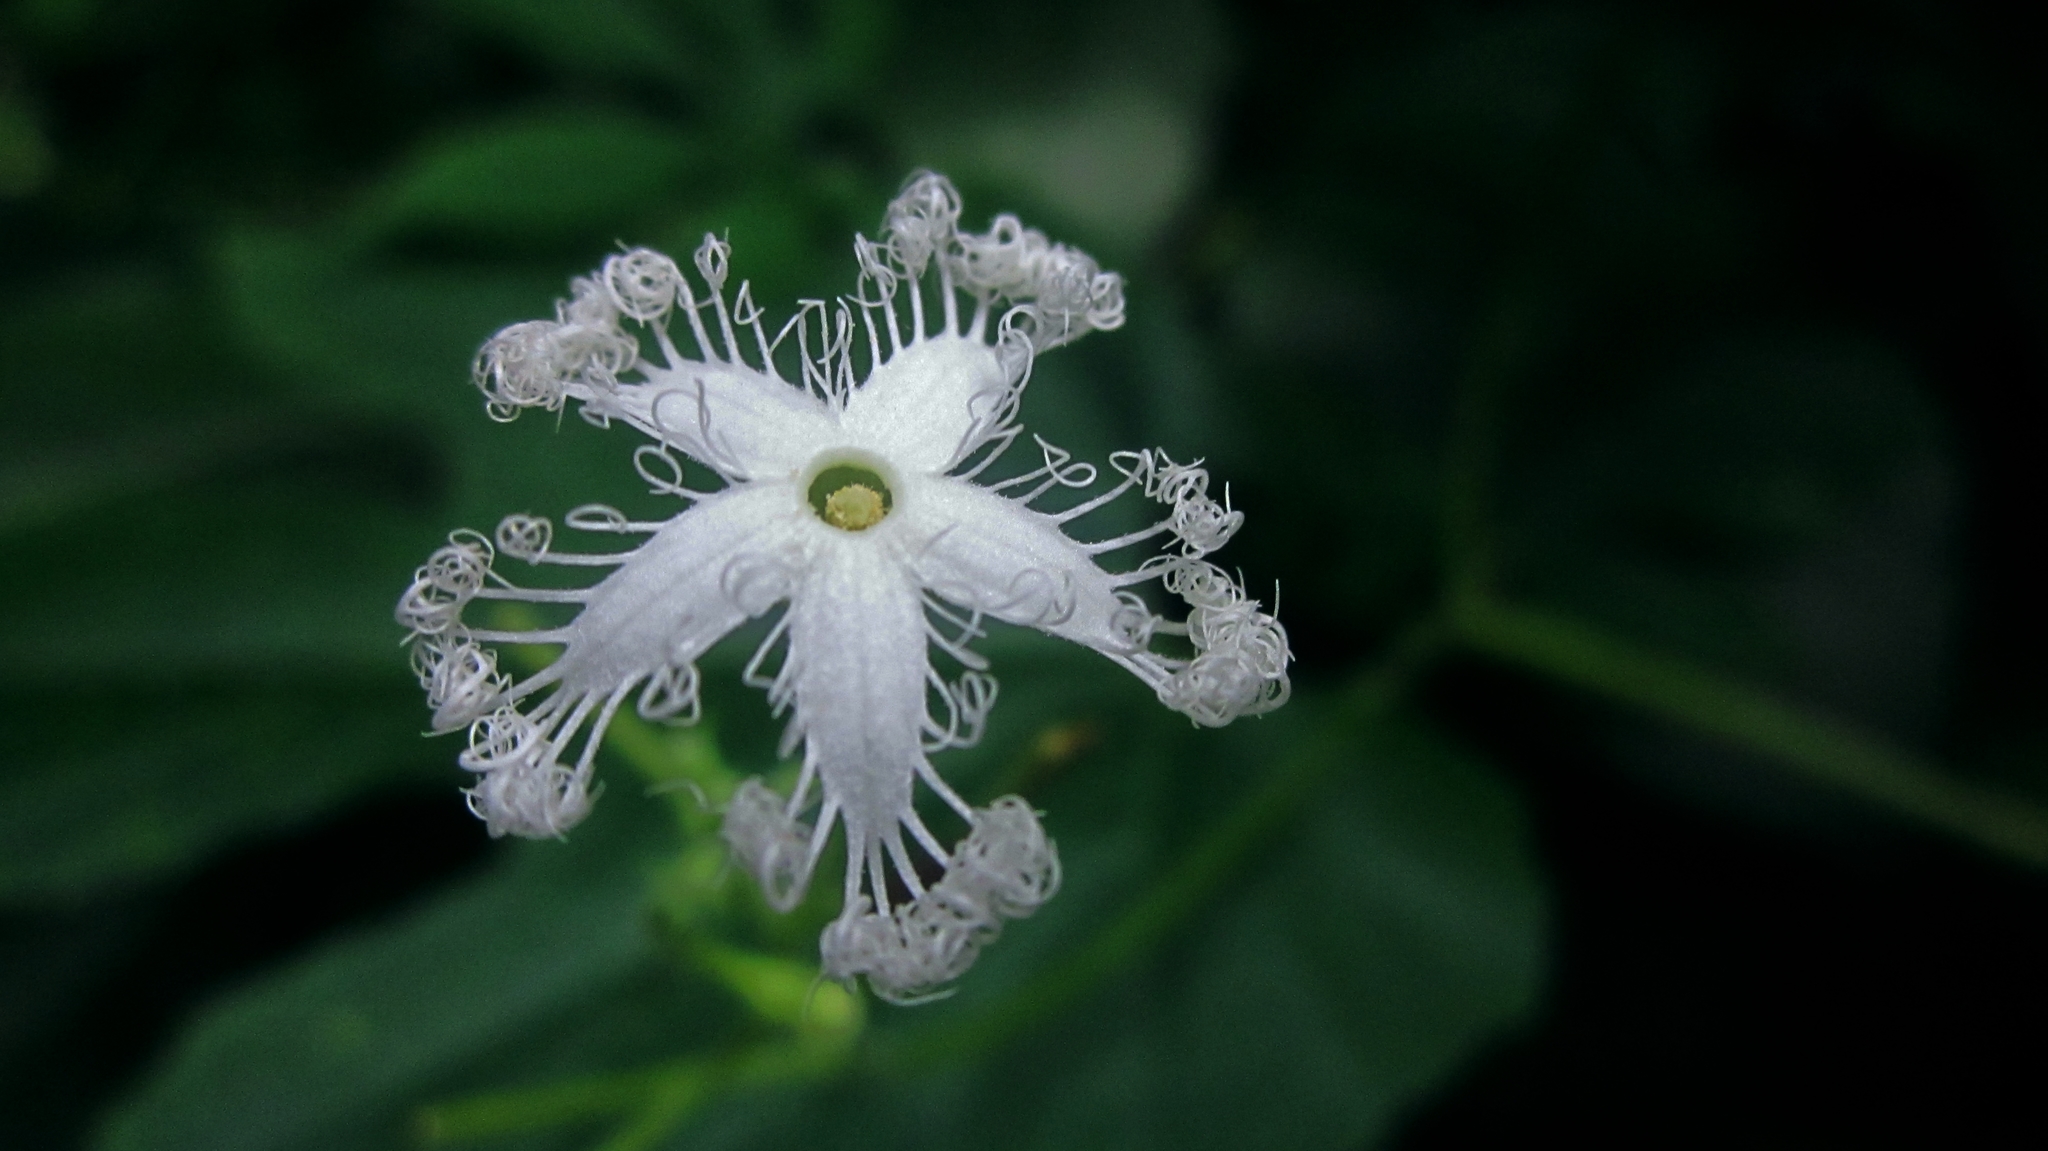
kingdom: Plantae
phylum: Tracheophyta
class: Magnoliopsida
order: Cucurbitales
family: Cucurbitaceae
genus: Trichosanthes
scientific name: Trichosanthes cucumerina
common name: Snakegourd
